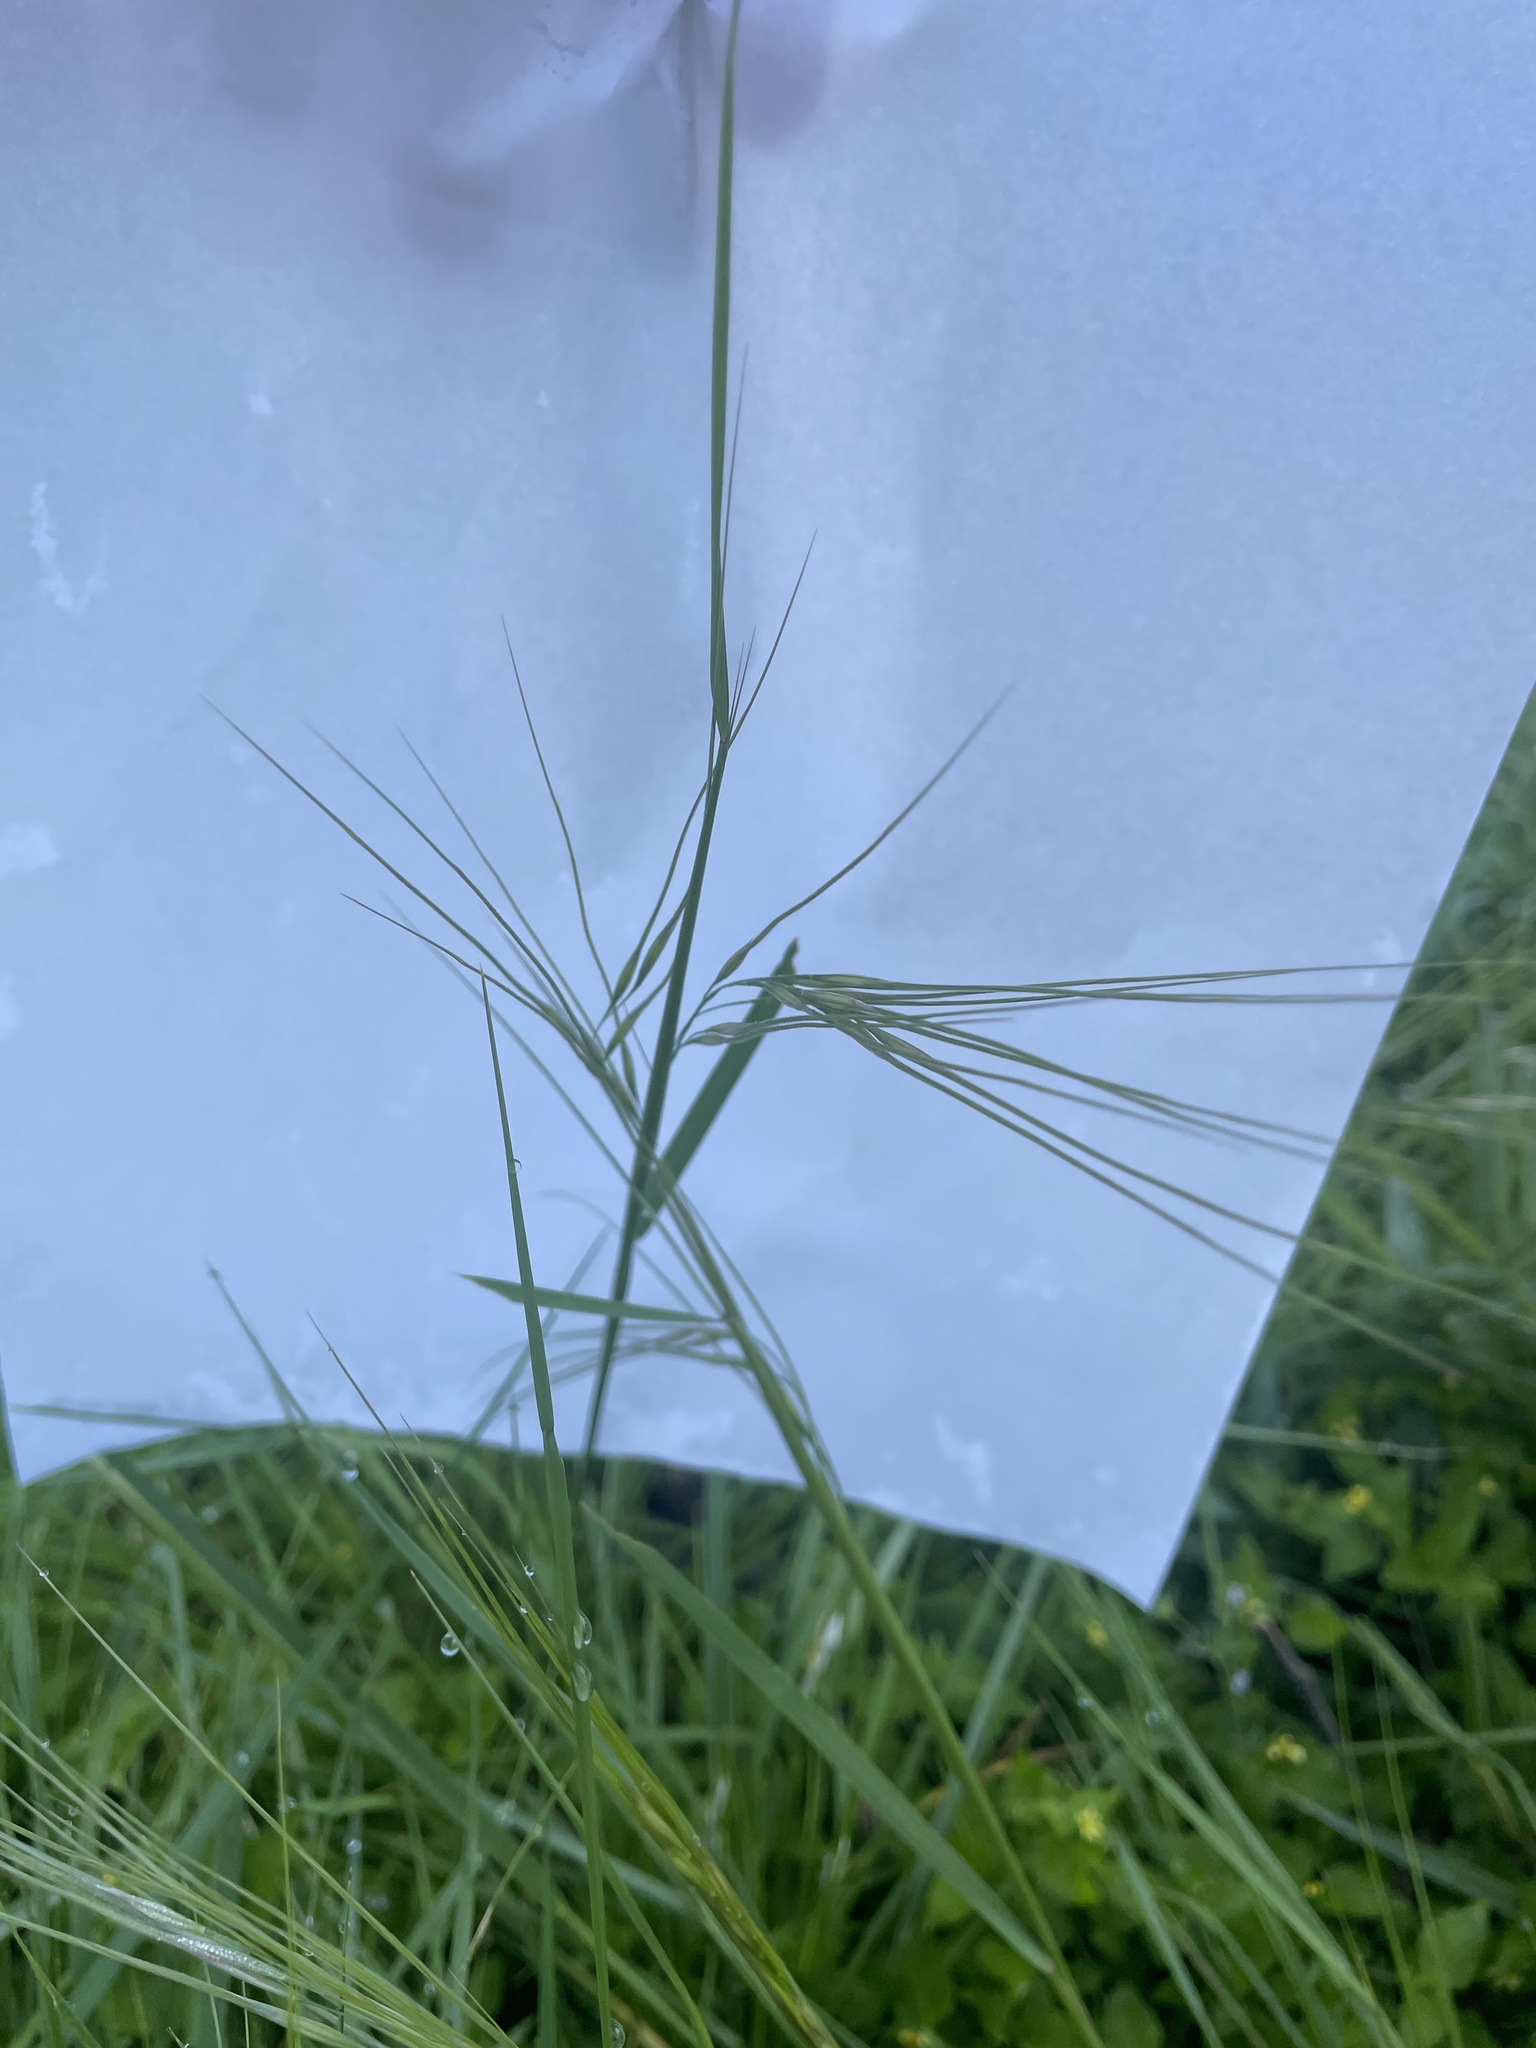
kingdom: Plantae
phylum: Tracheophyta
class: Liliopsida
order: Poales
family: Poaceae
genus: Nassella
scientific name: Nassella leucotricha
